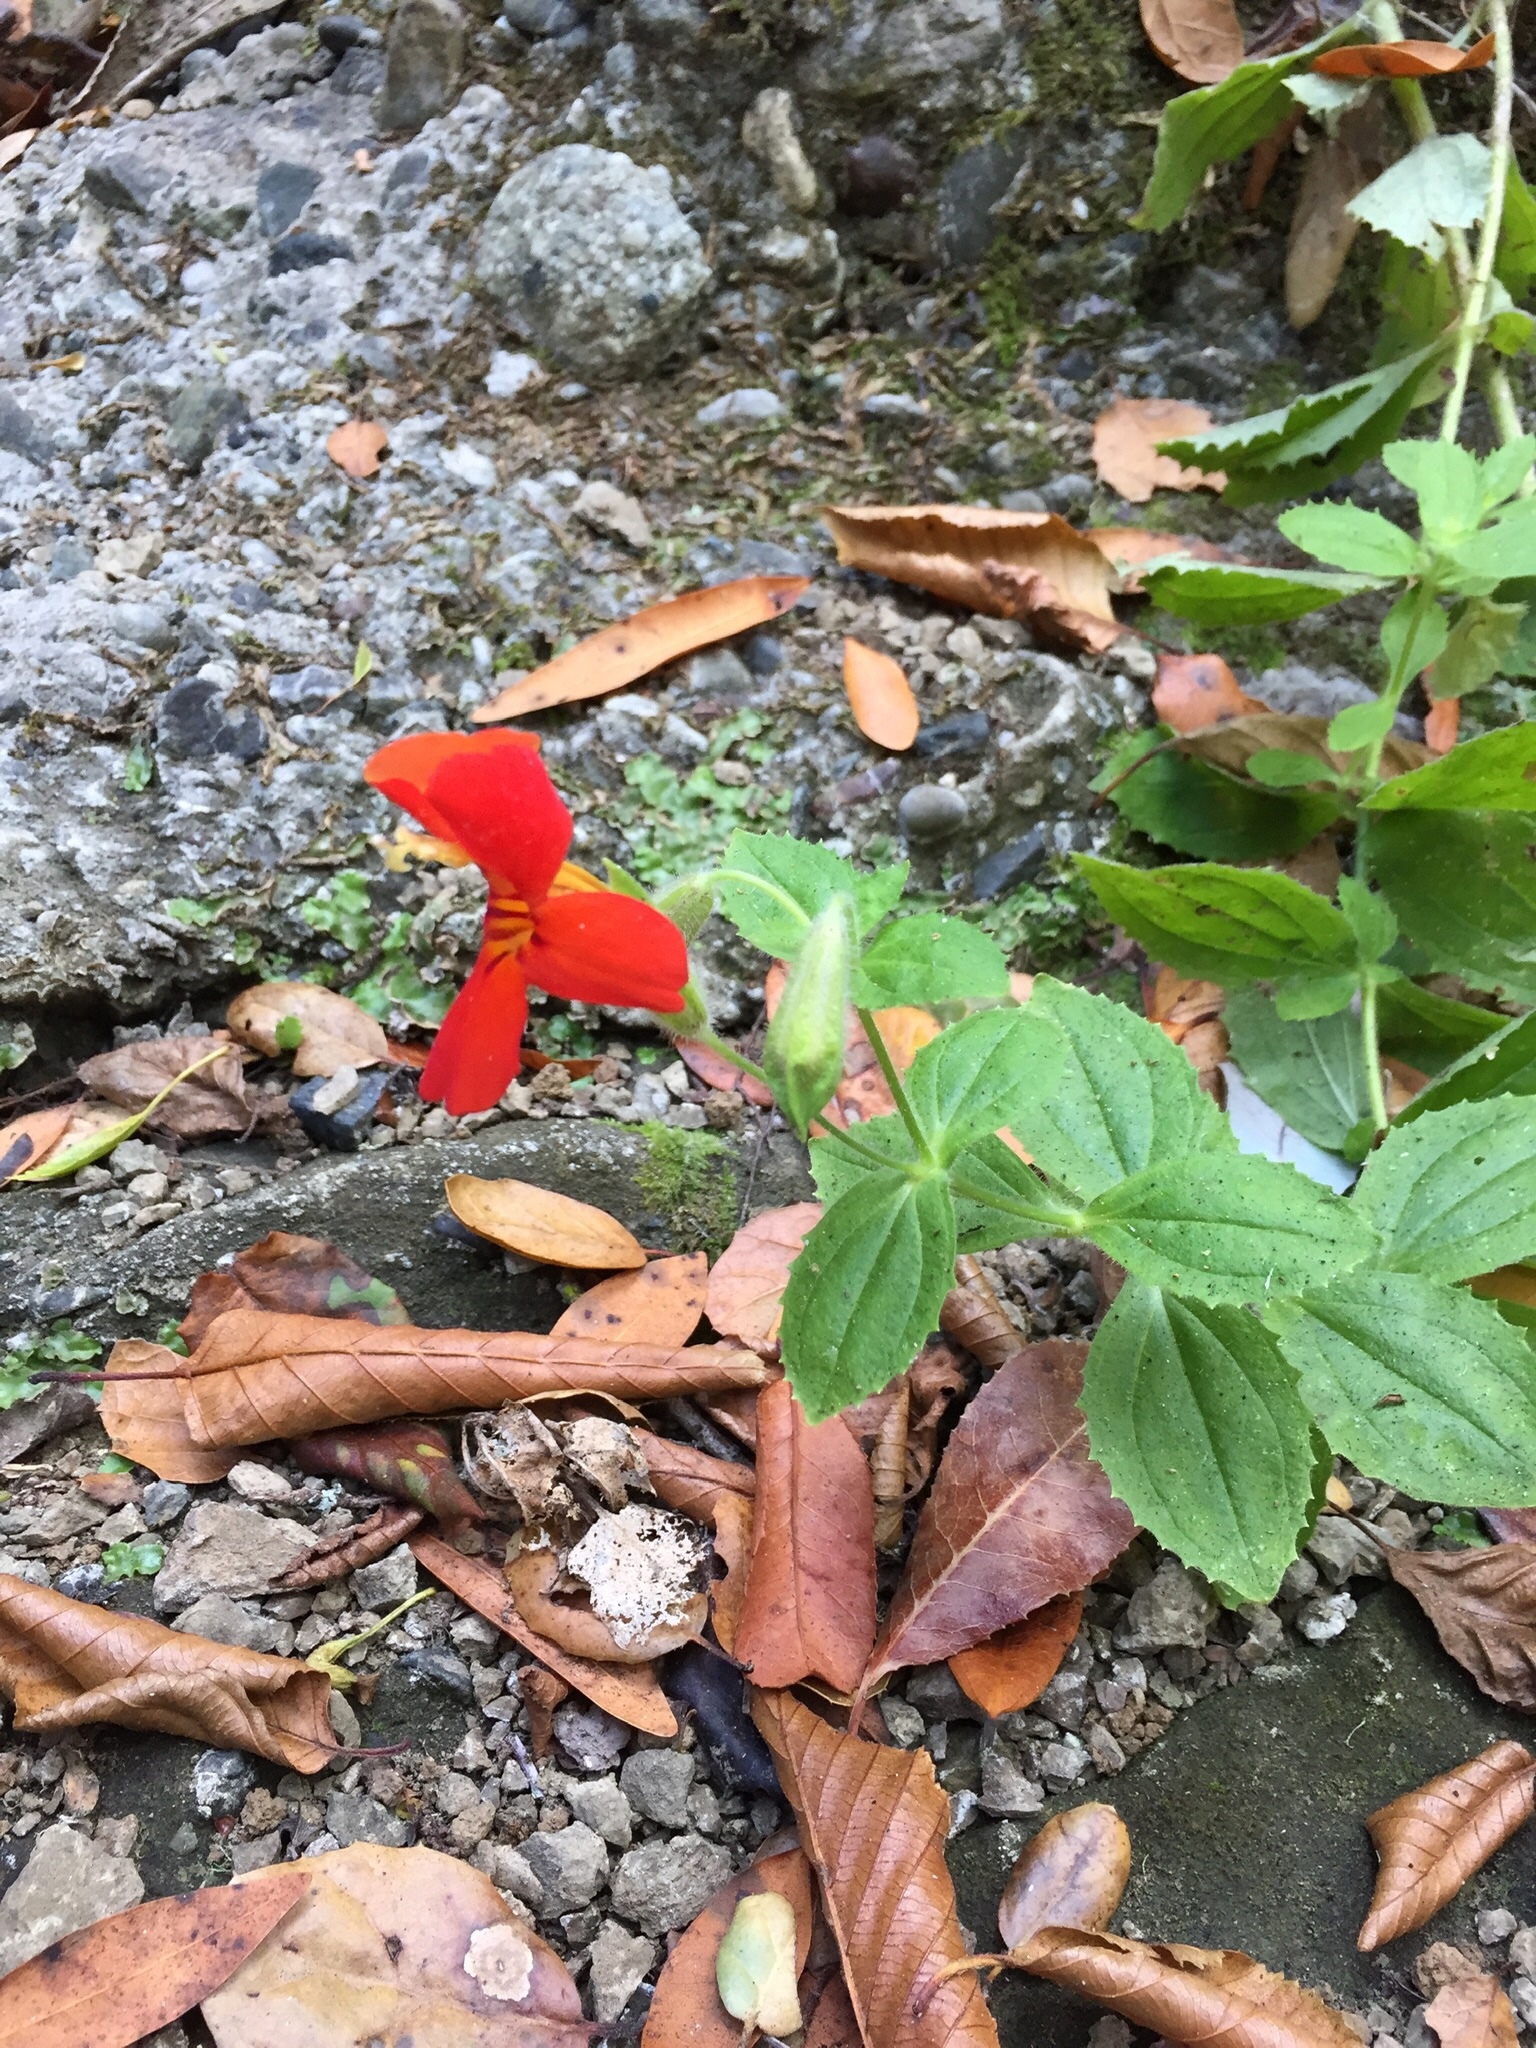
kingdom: Plantae
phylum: Tracheophyta
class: Magnoliopsida
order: Lamiales
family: Phrymaceae
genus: Erythranthe
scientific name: Erythranthe cardinalis
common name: Scarlet monkey-flower
